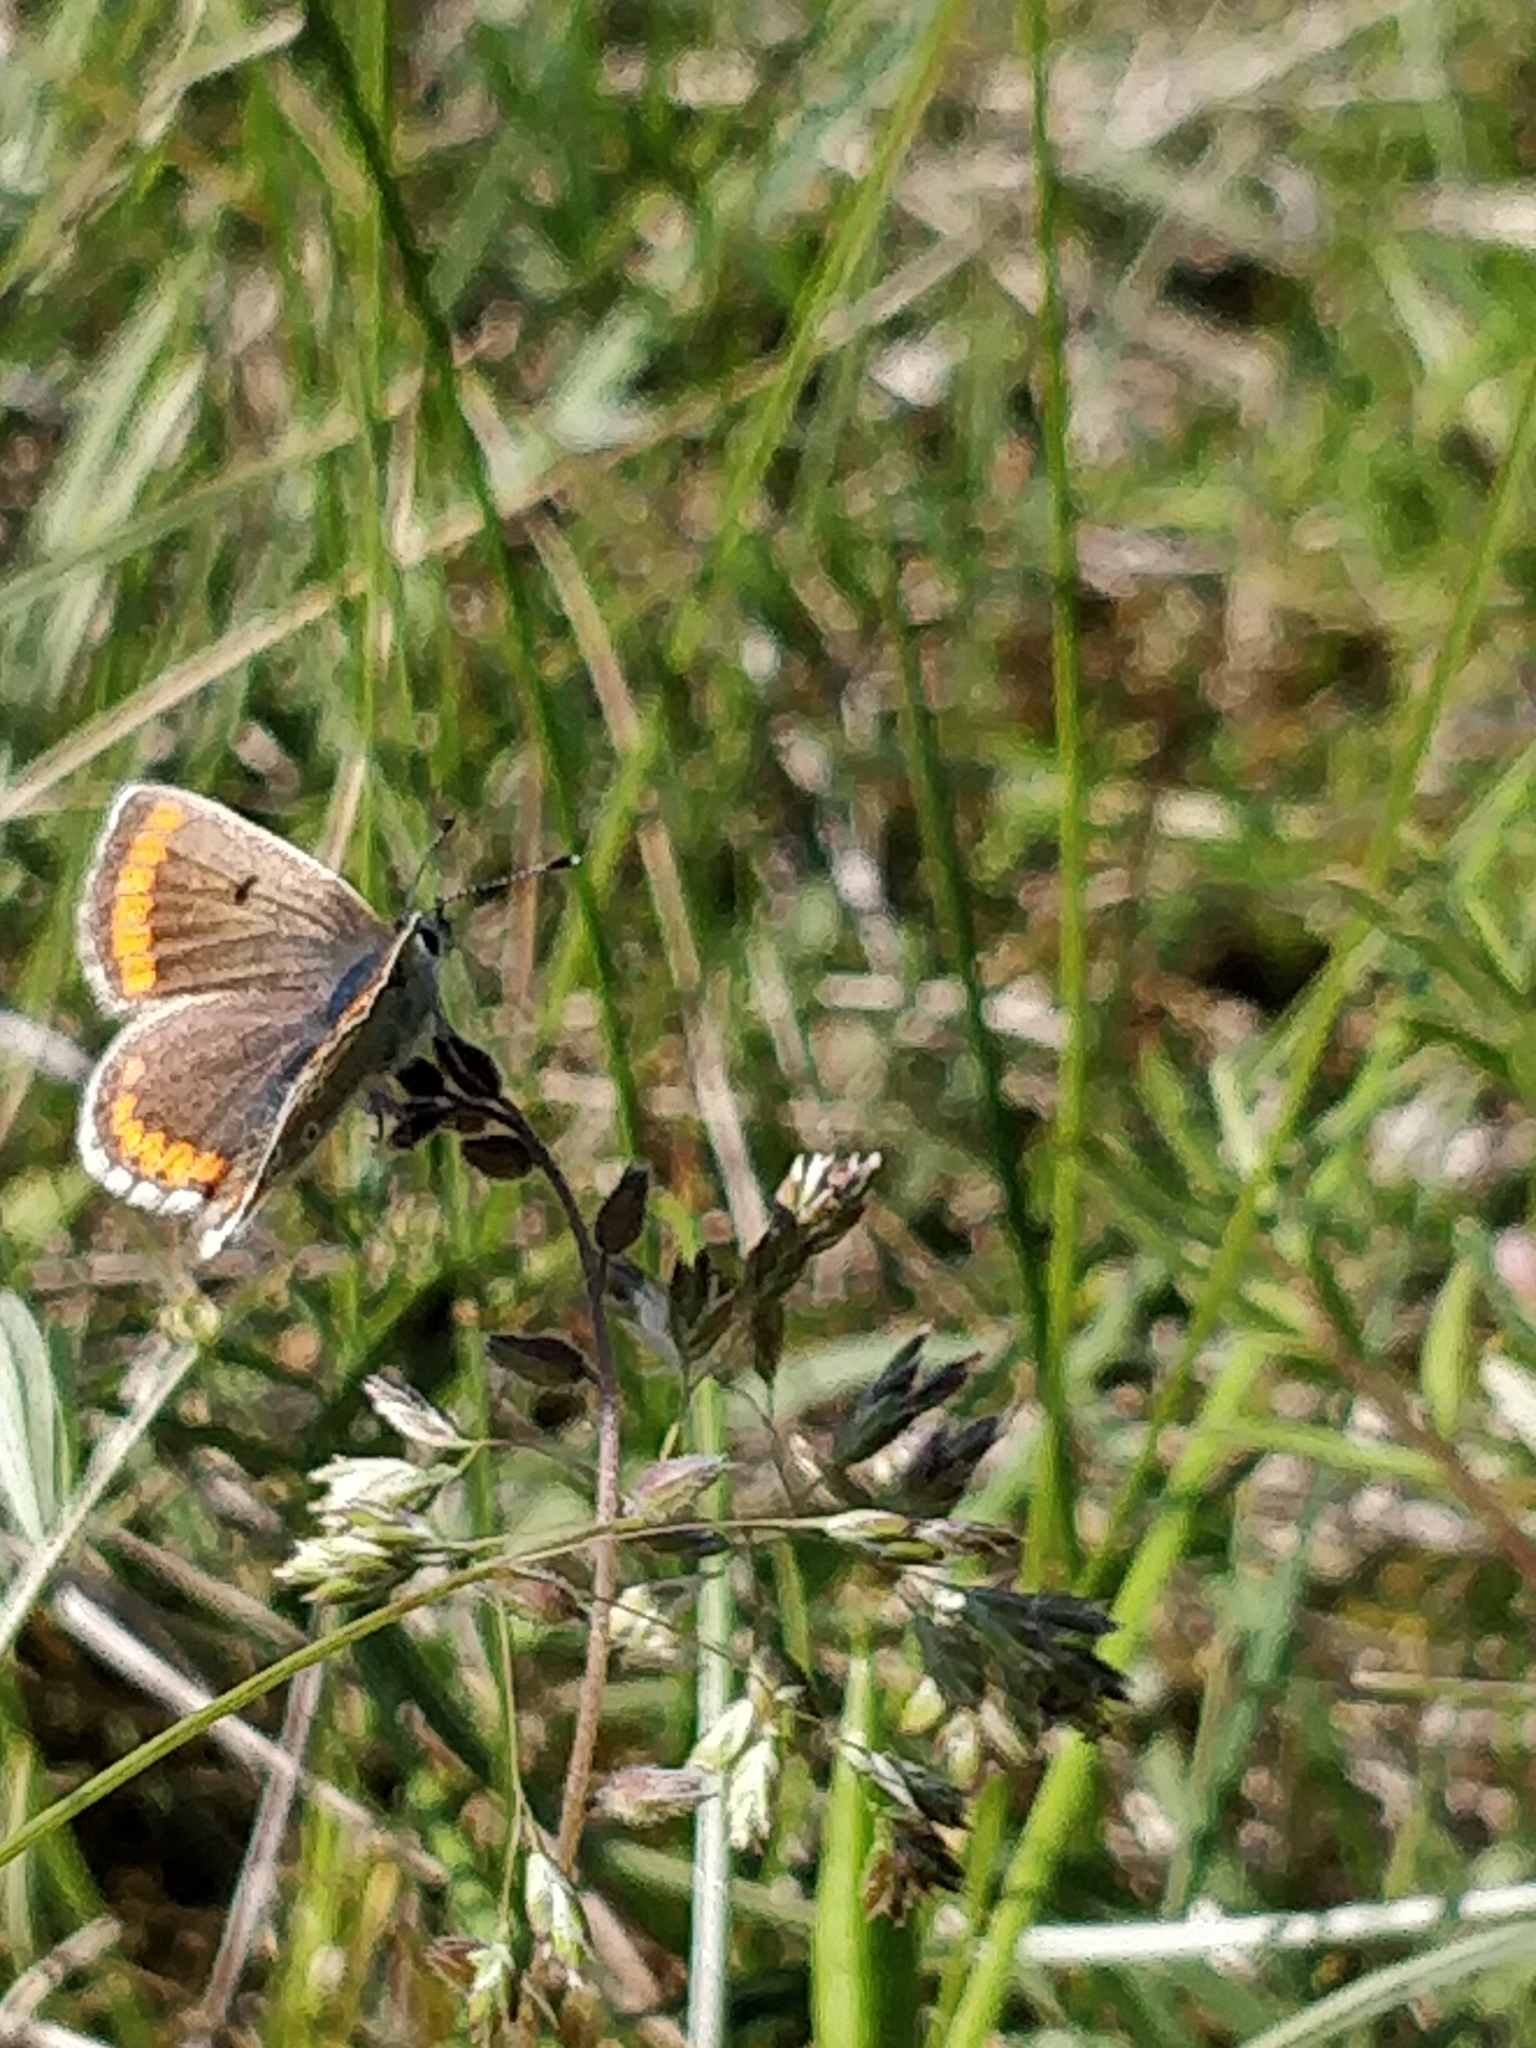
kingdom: Animalia
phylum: Arthropoda
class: Insecta
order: Lepidoptera
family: Lycaenidae
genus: Aricia
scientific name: Aricia agestis
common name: Brown argus
